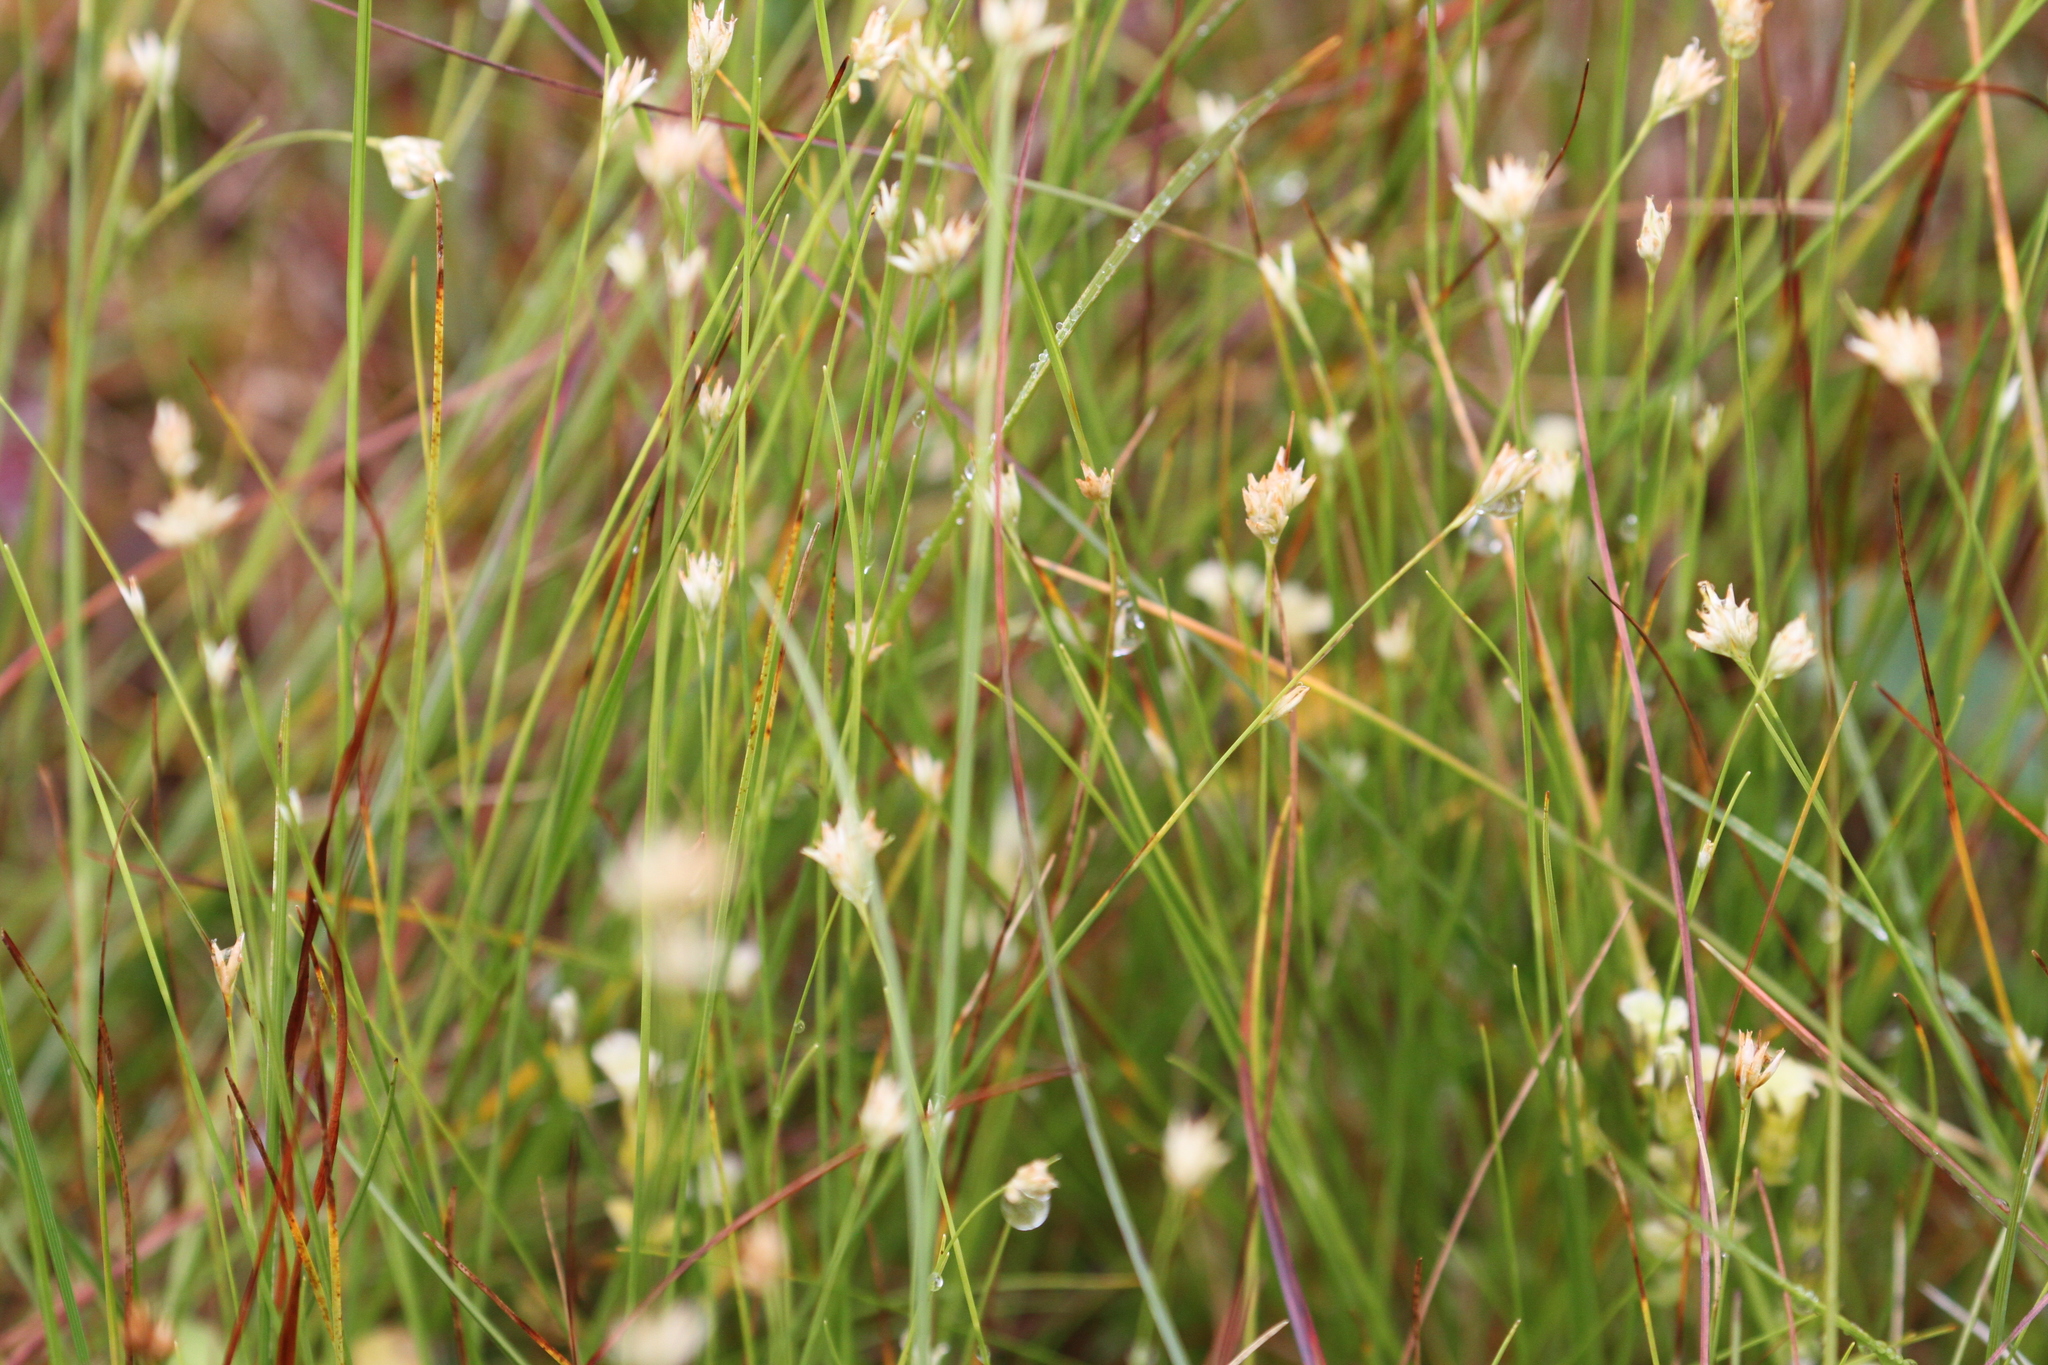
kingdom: Plantae
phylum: Tracheophyta
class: Liliopsida
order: Poales
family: Cyperaceae
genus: Rhynchospora
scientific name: Rhynchospora alba
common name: White beak-sedge
